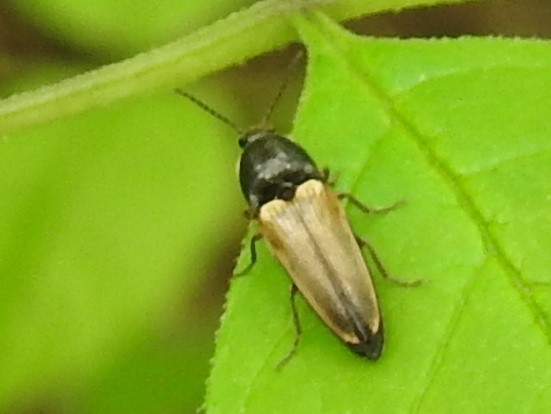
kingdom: Animalia
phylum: Arthropoda
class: Insecta
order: Coleoptera
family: Elateridae
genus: Ampedus
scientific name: Ampedus nigricollis
